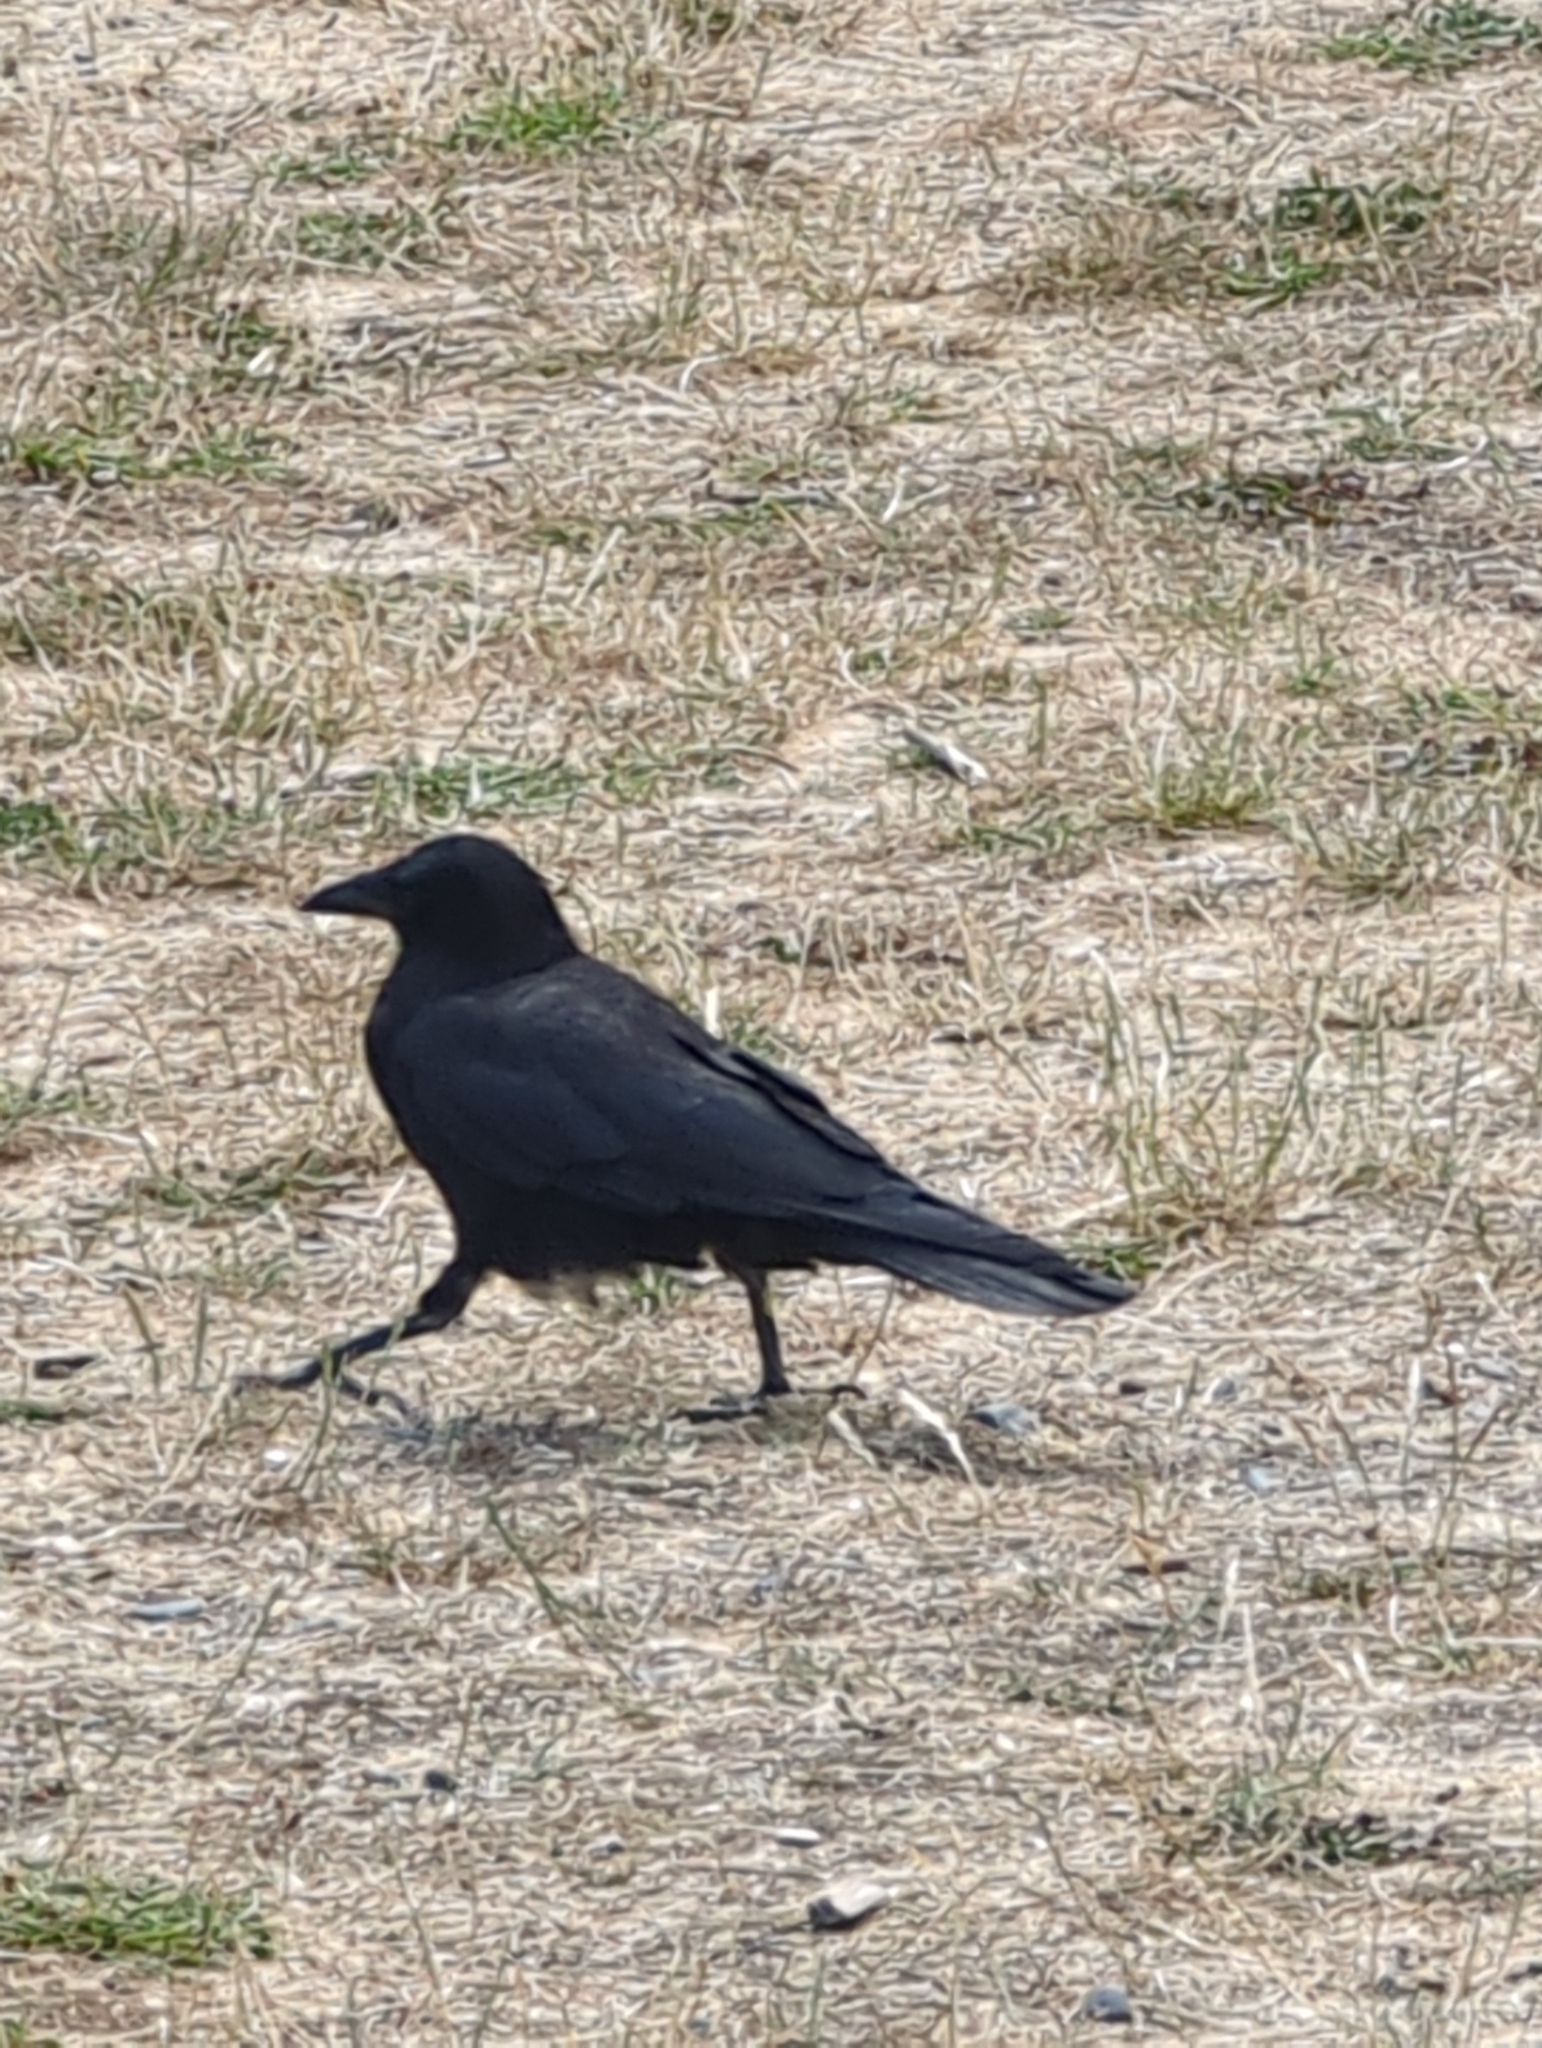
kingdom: Animalia
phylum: Chordata
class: Aves
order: Passeriformes
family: Corvidae
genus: Corvus
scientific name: Corvus brachyrhynchos
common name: American crow
